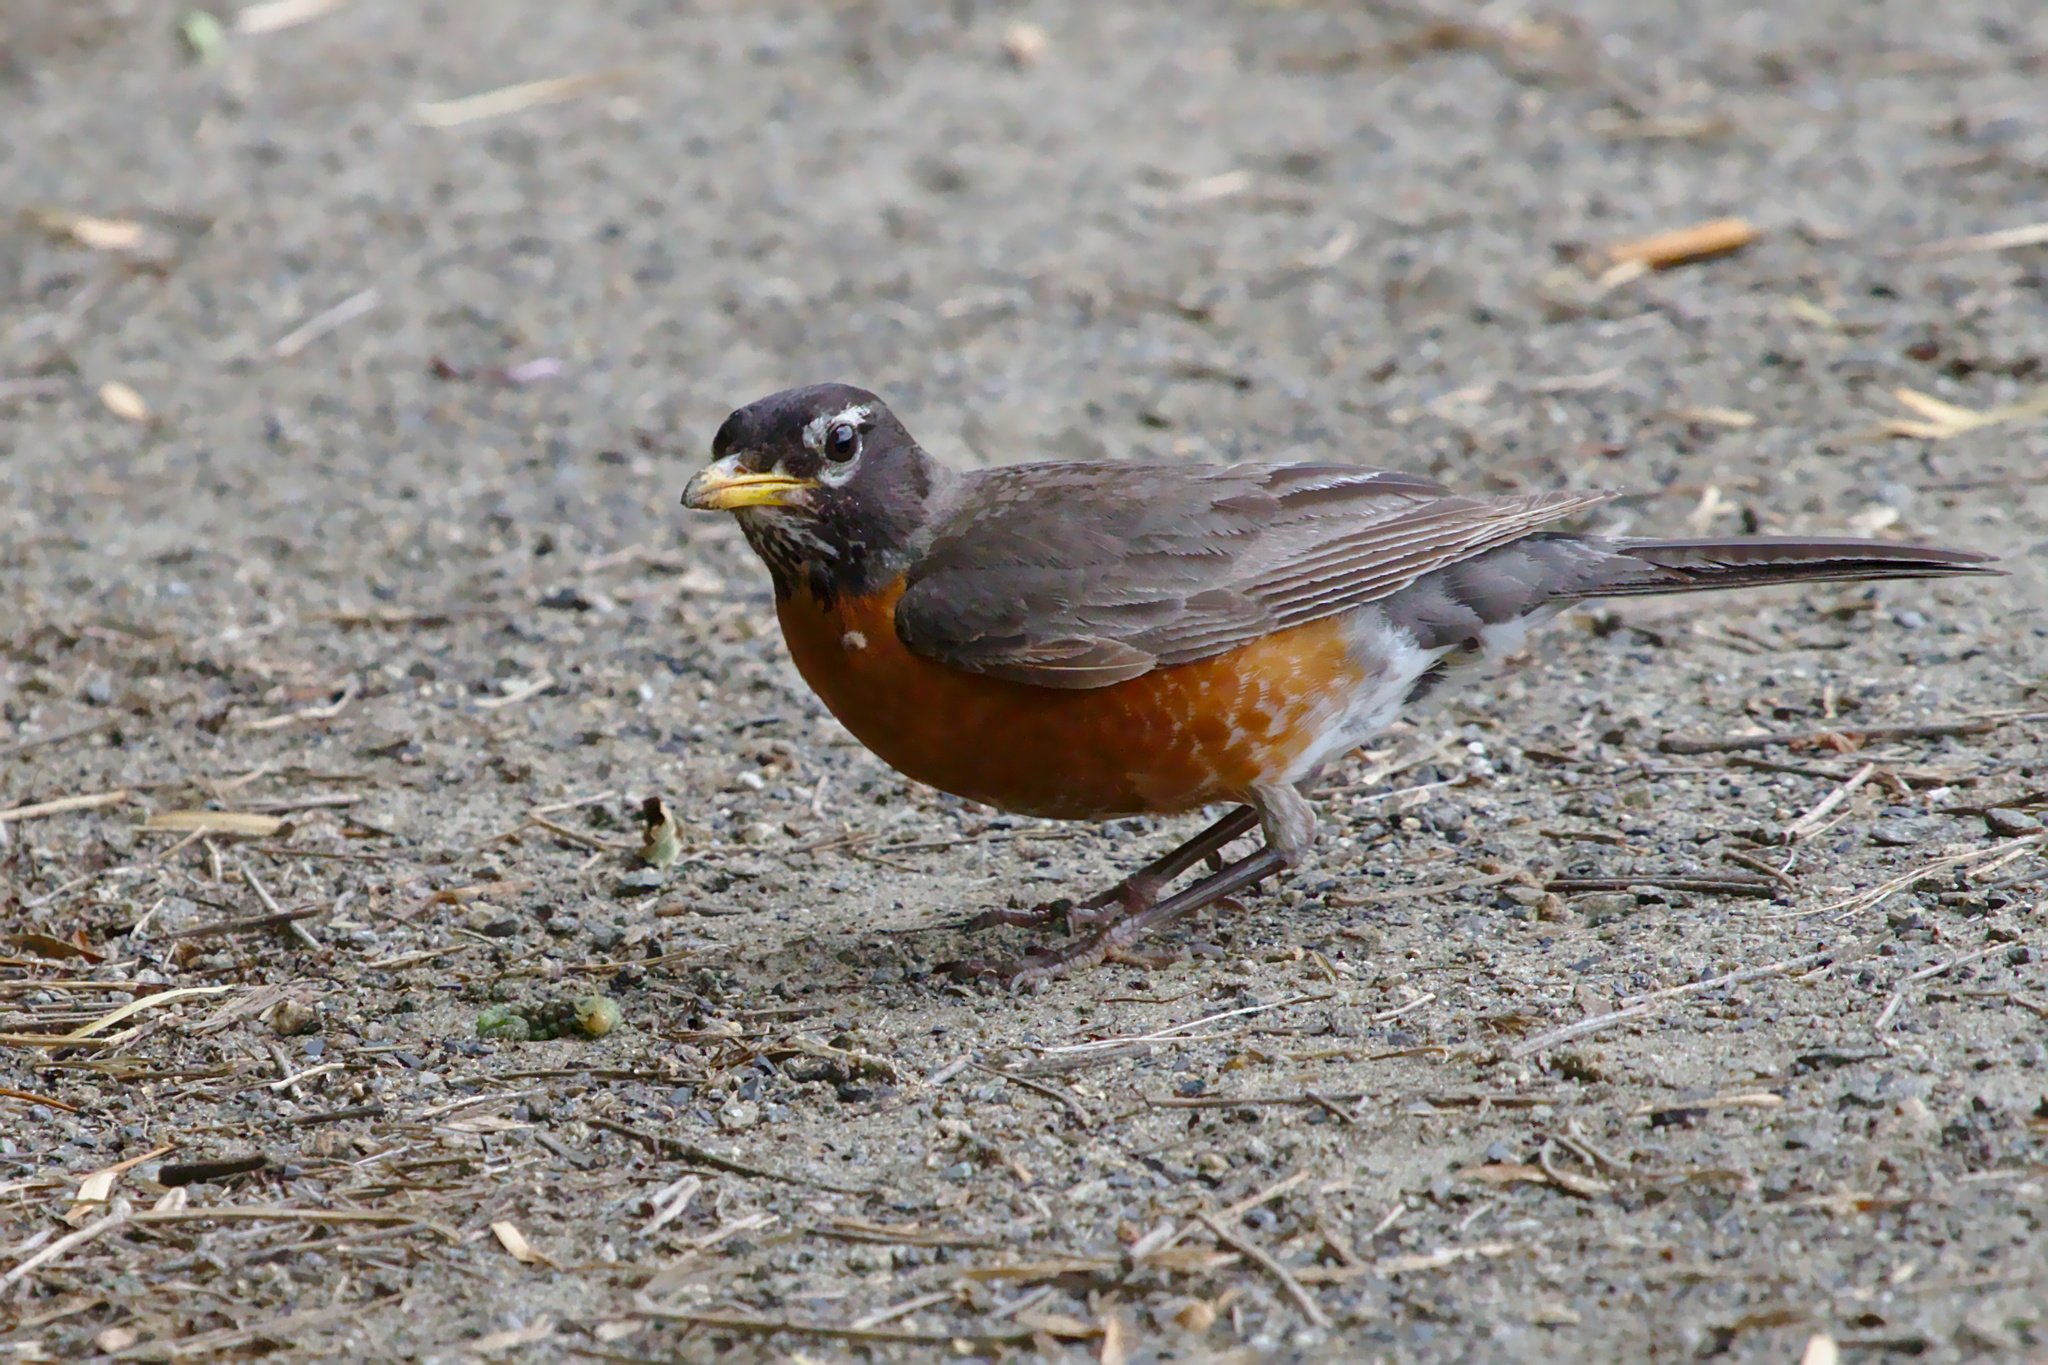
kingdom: Animalia
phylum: Chordata
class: Aves
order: Passeriformes
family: Turdidae
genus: Turdus
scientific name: Turdus migratorius
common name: American robin
